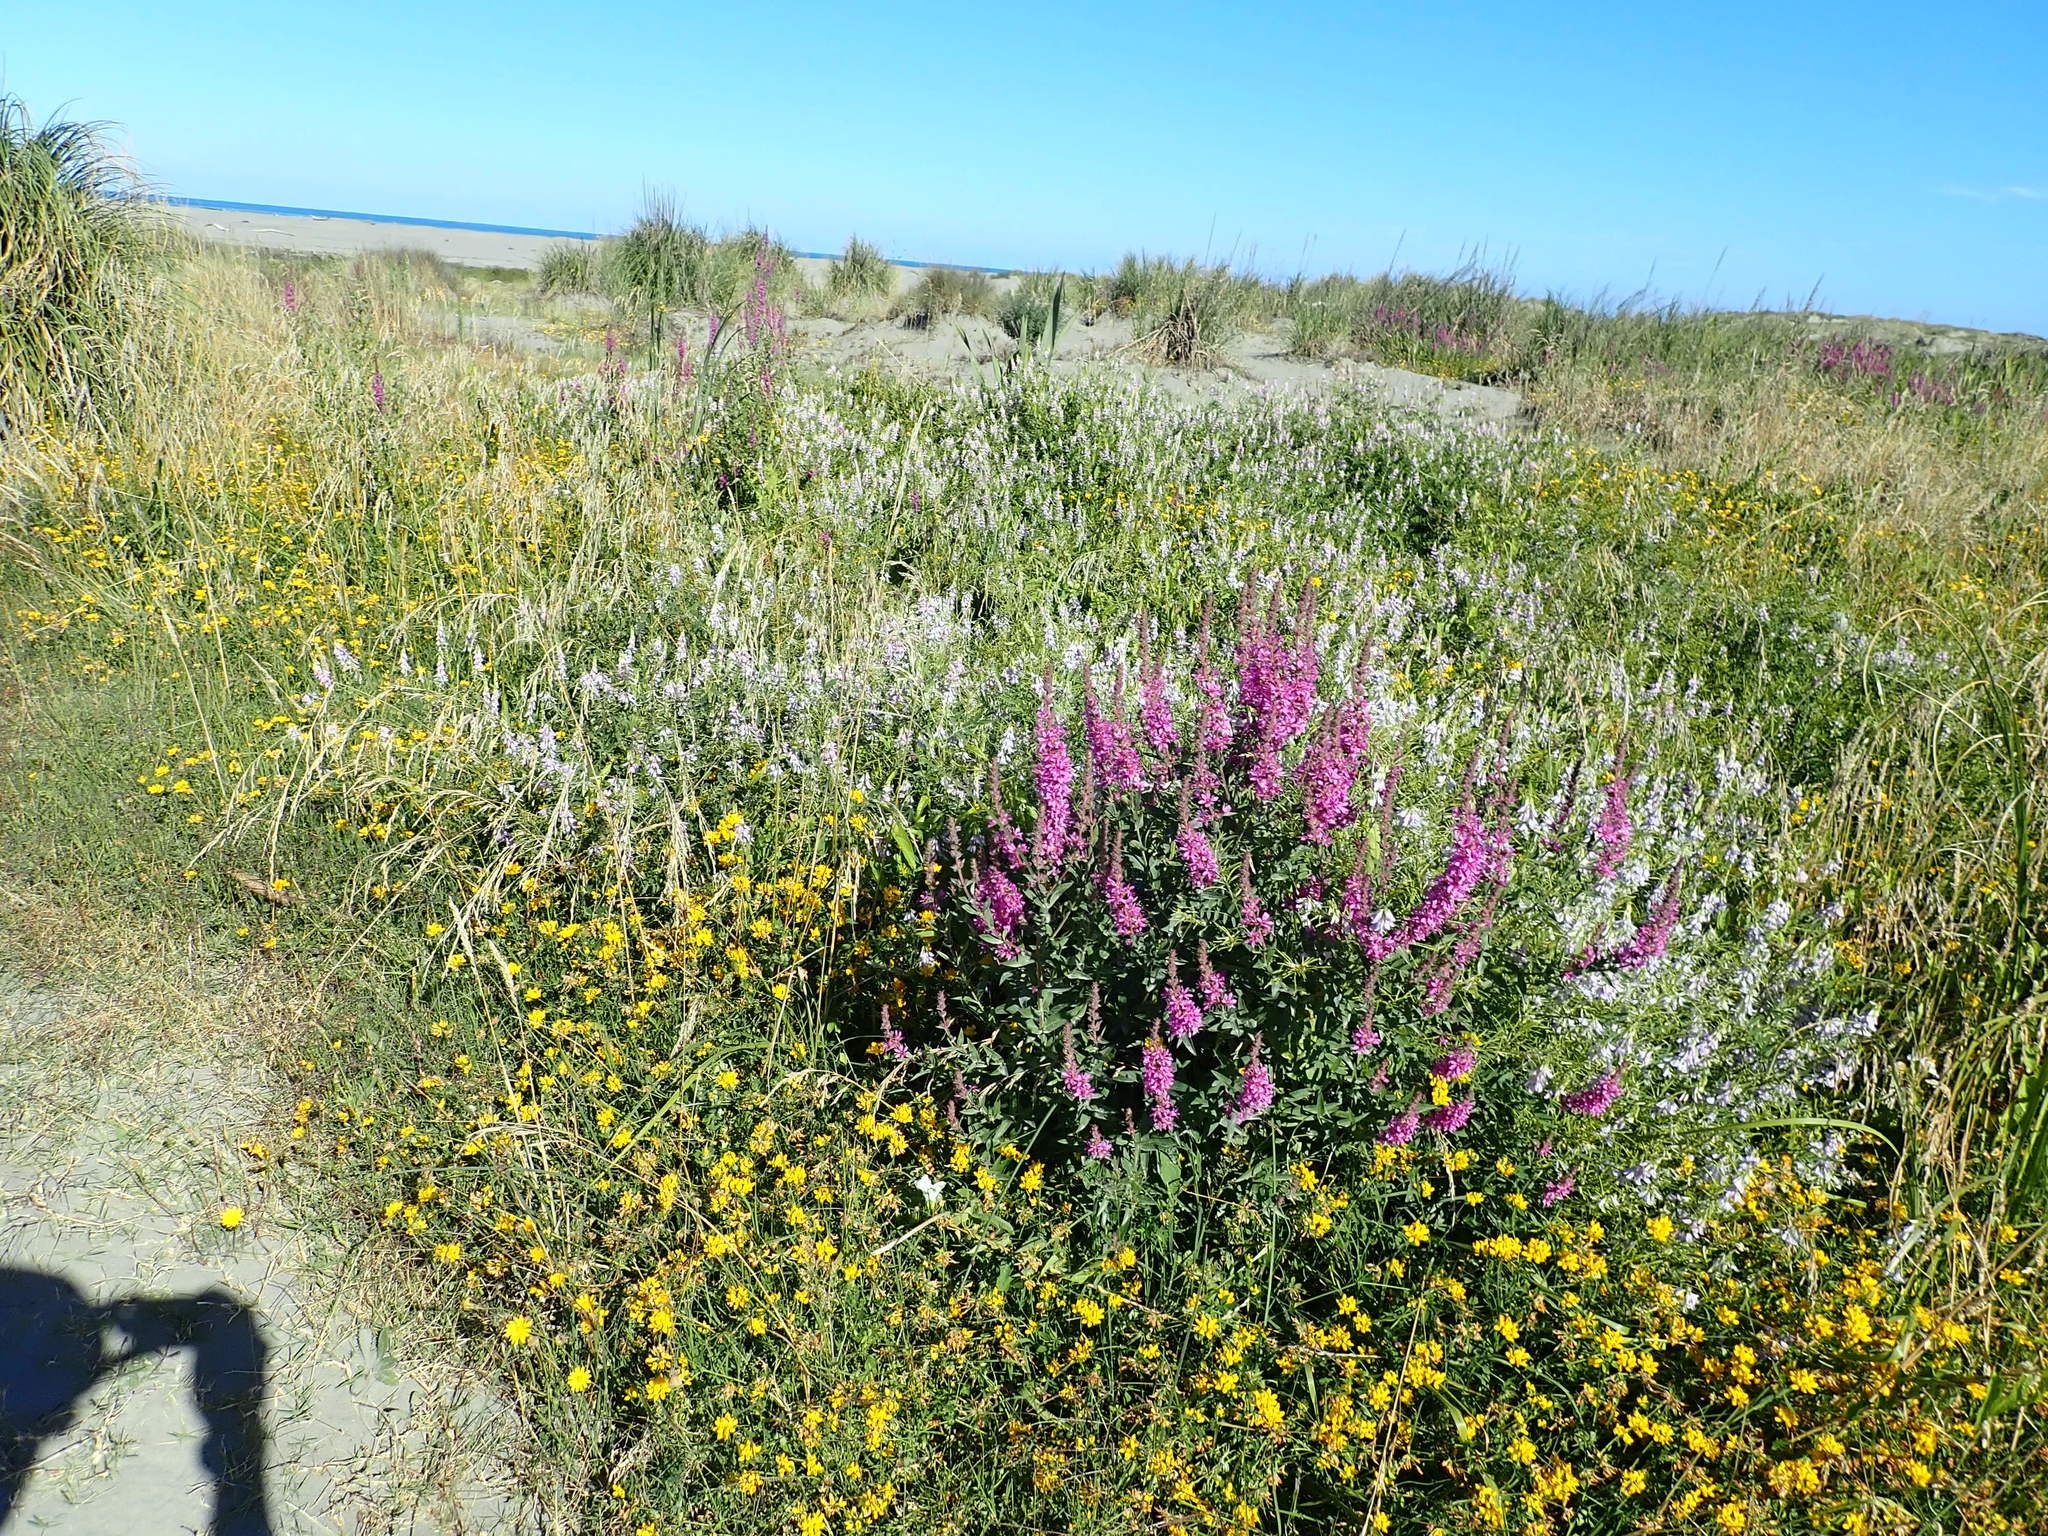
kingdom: Plantae
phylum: Tracheophyta
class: Magnoliopsida
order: Myrtales
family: Lythraceae
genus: Lythrum
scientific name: Lythrum salicaria
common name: Purple loosestrife
